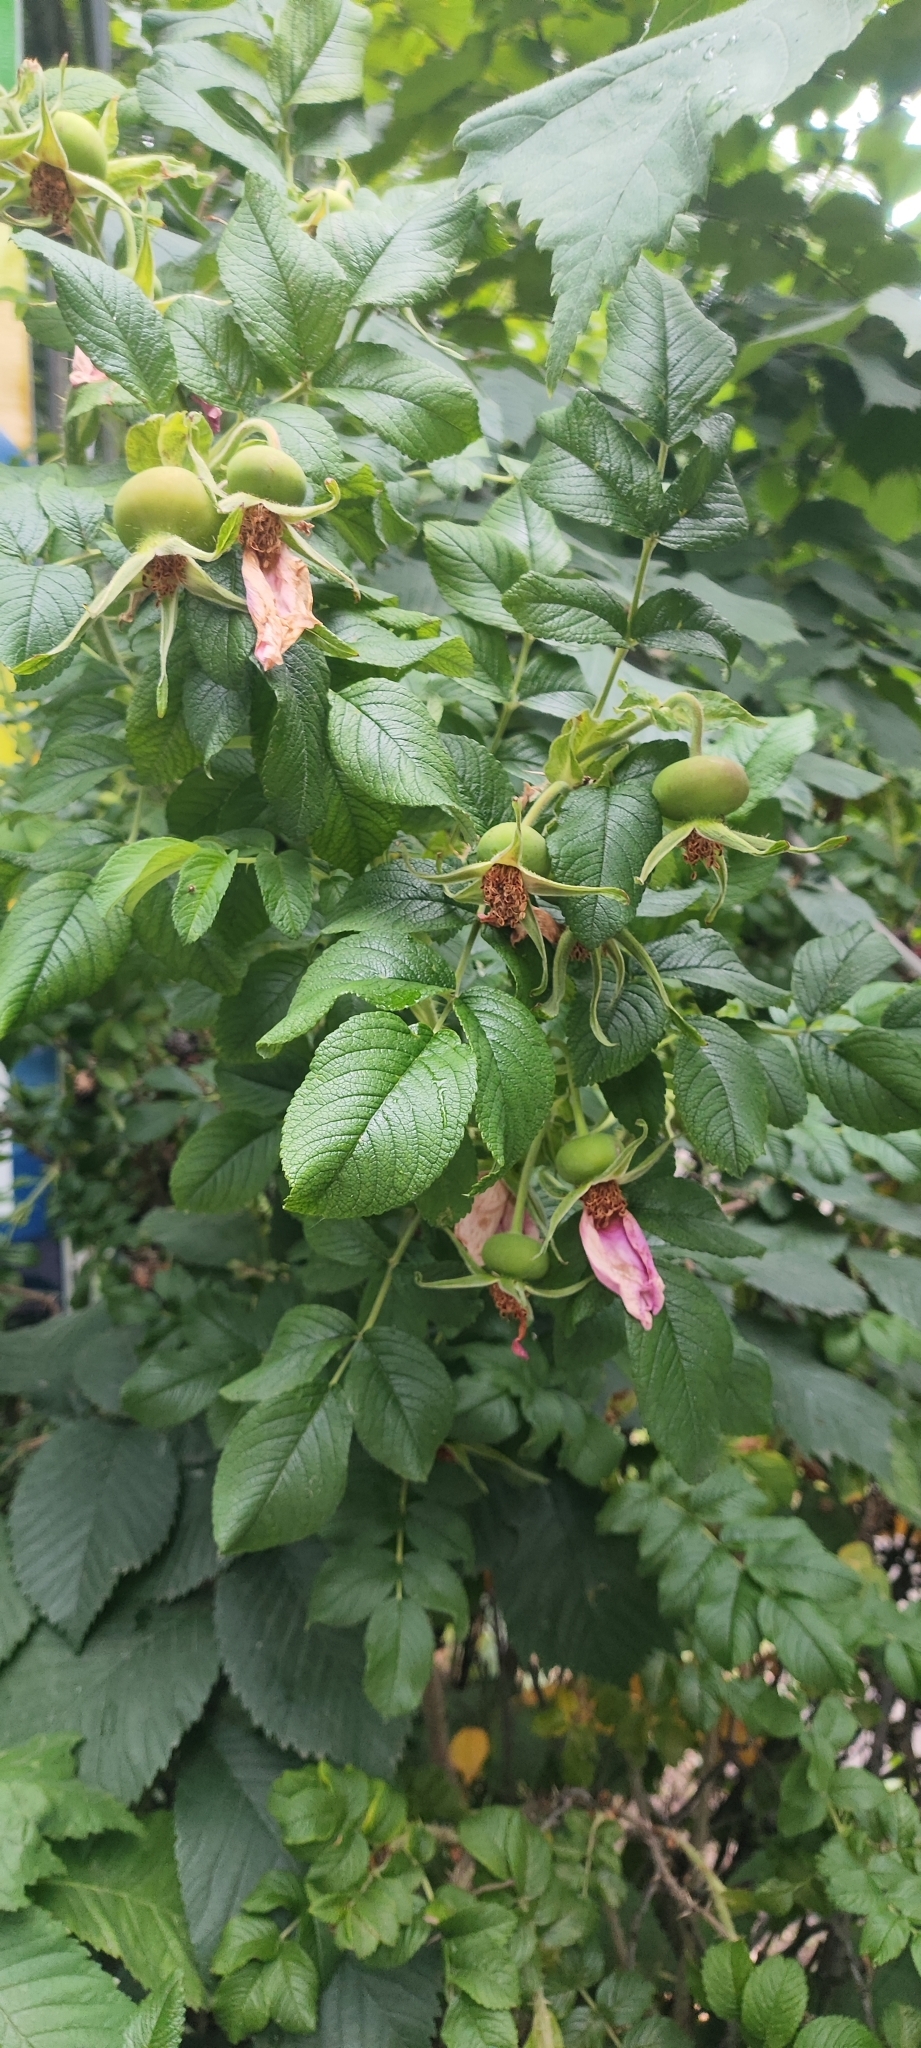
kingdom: Plantae
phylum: Tracheophyta
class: Magnoliopsida
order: Rosales
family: Rosaceae
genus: Rosa
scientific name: Rosa rugosa
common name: Japanese rose
